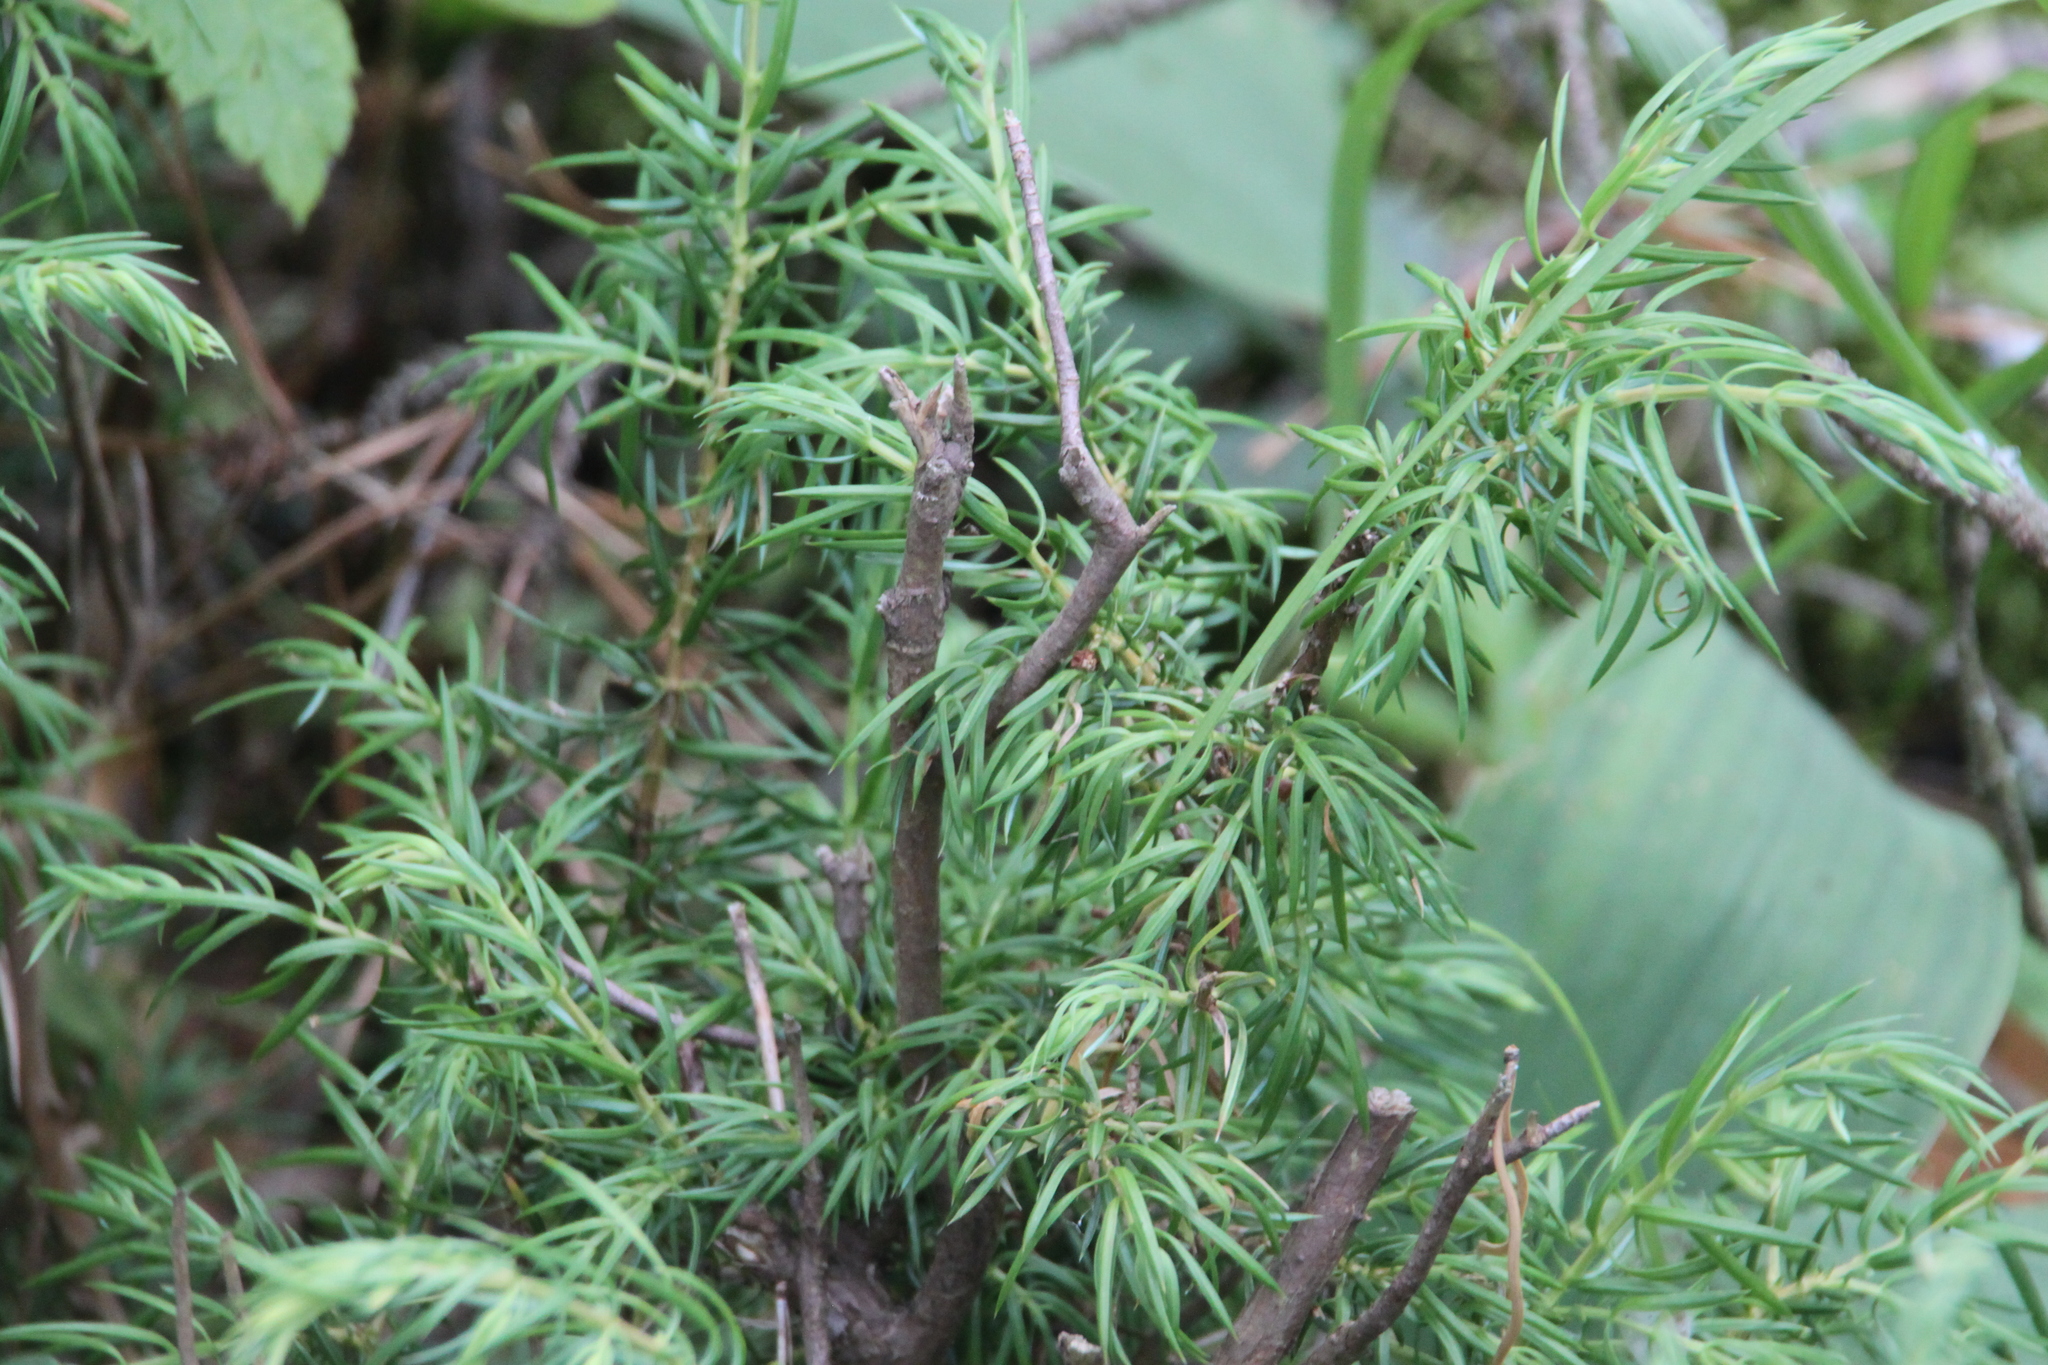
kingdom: Plantae
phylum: Tracheophyta
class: Pinopsida
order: Pinales
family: Cupressaceae
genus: Juniperus
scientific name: Juniperus communis
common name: Common juniper
